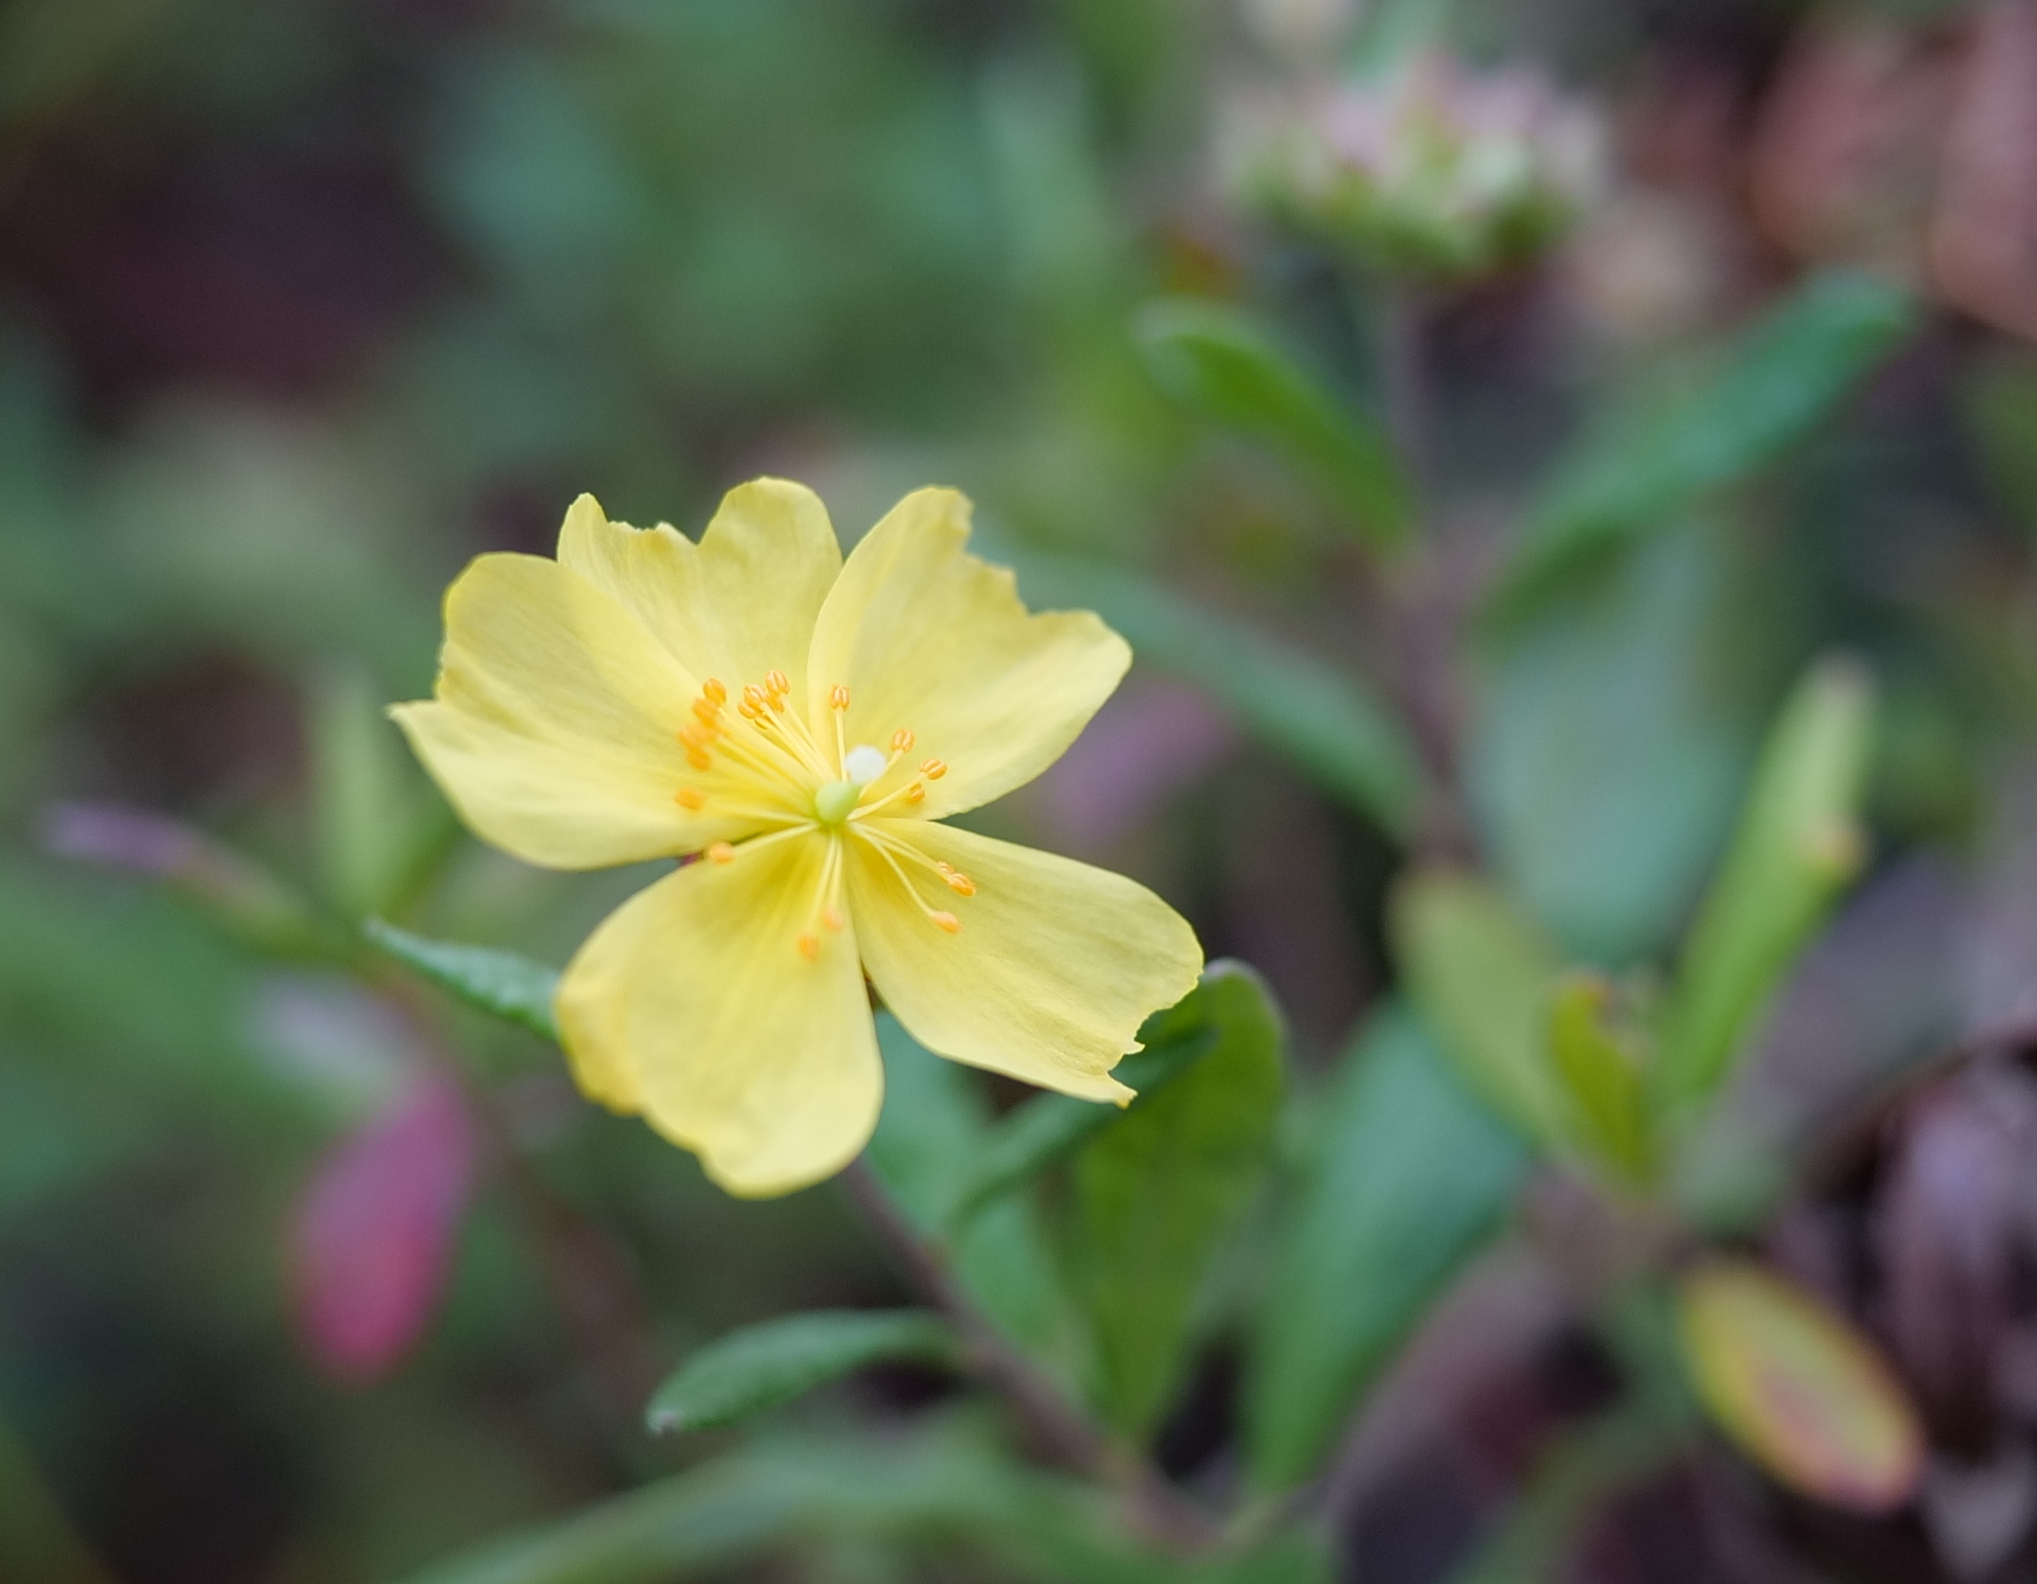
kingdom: Plantae
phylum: Tracheophyta
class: Magnoliopsida
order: Malvales
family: Cistaceae
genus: Crocanthemum
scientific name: Crocanthemum corymbosum
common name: Pinebarren sun-rose
